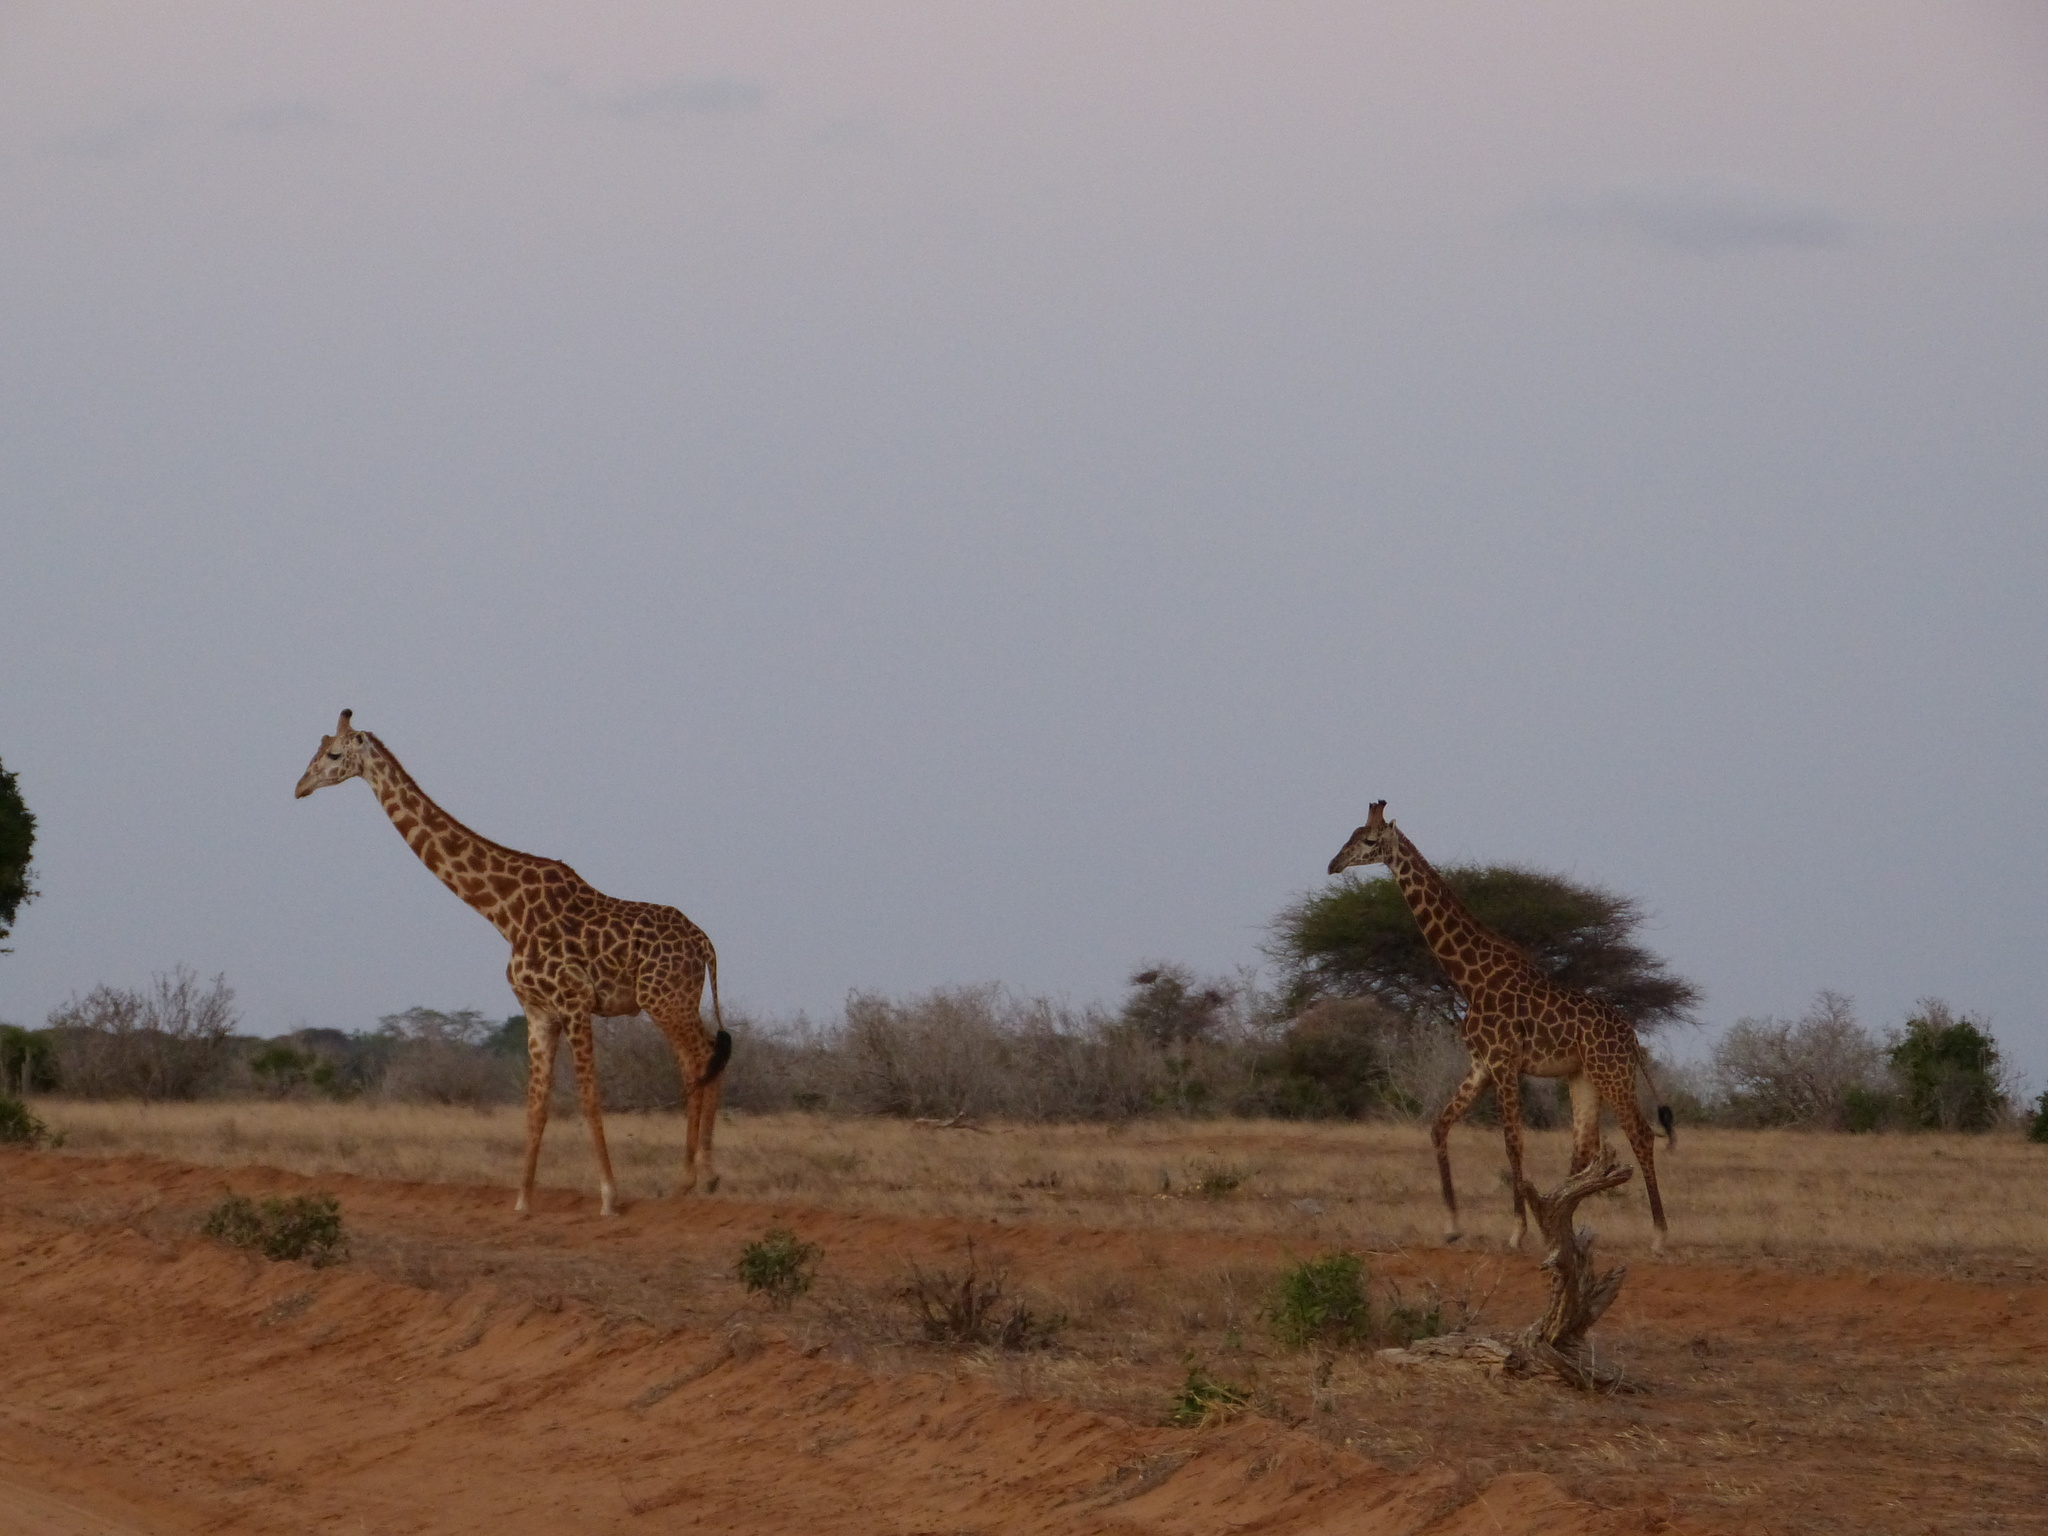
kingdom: Animalia
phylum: Chordata
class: Mammalia
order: Artiodactyla
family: Giraffidae
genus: Giraffa
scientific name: Giraffa tippelskirchi
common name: Masai giraffe
